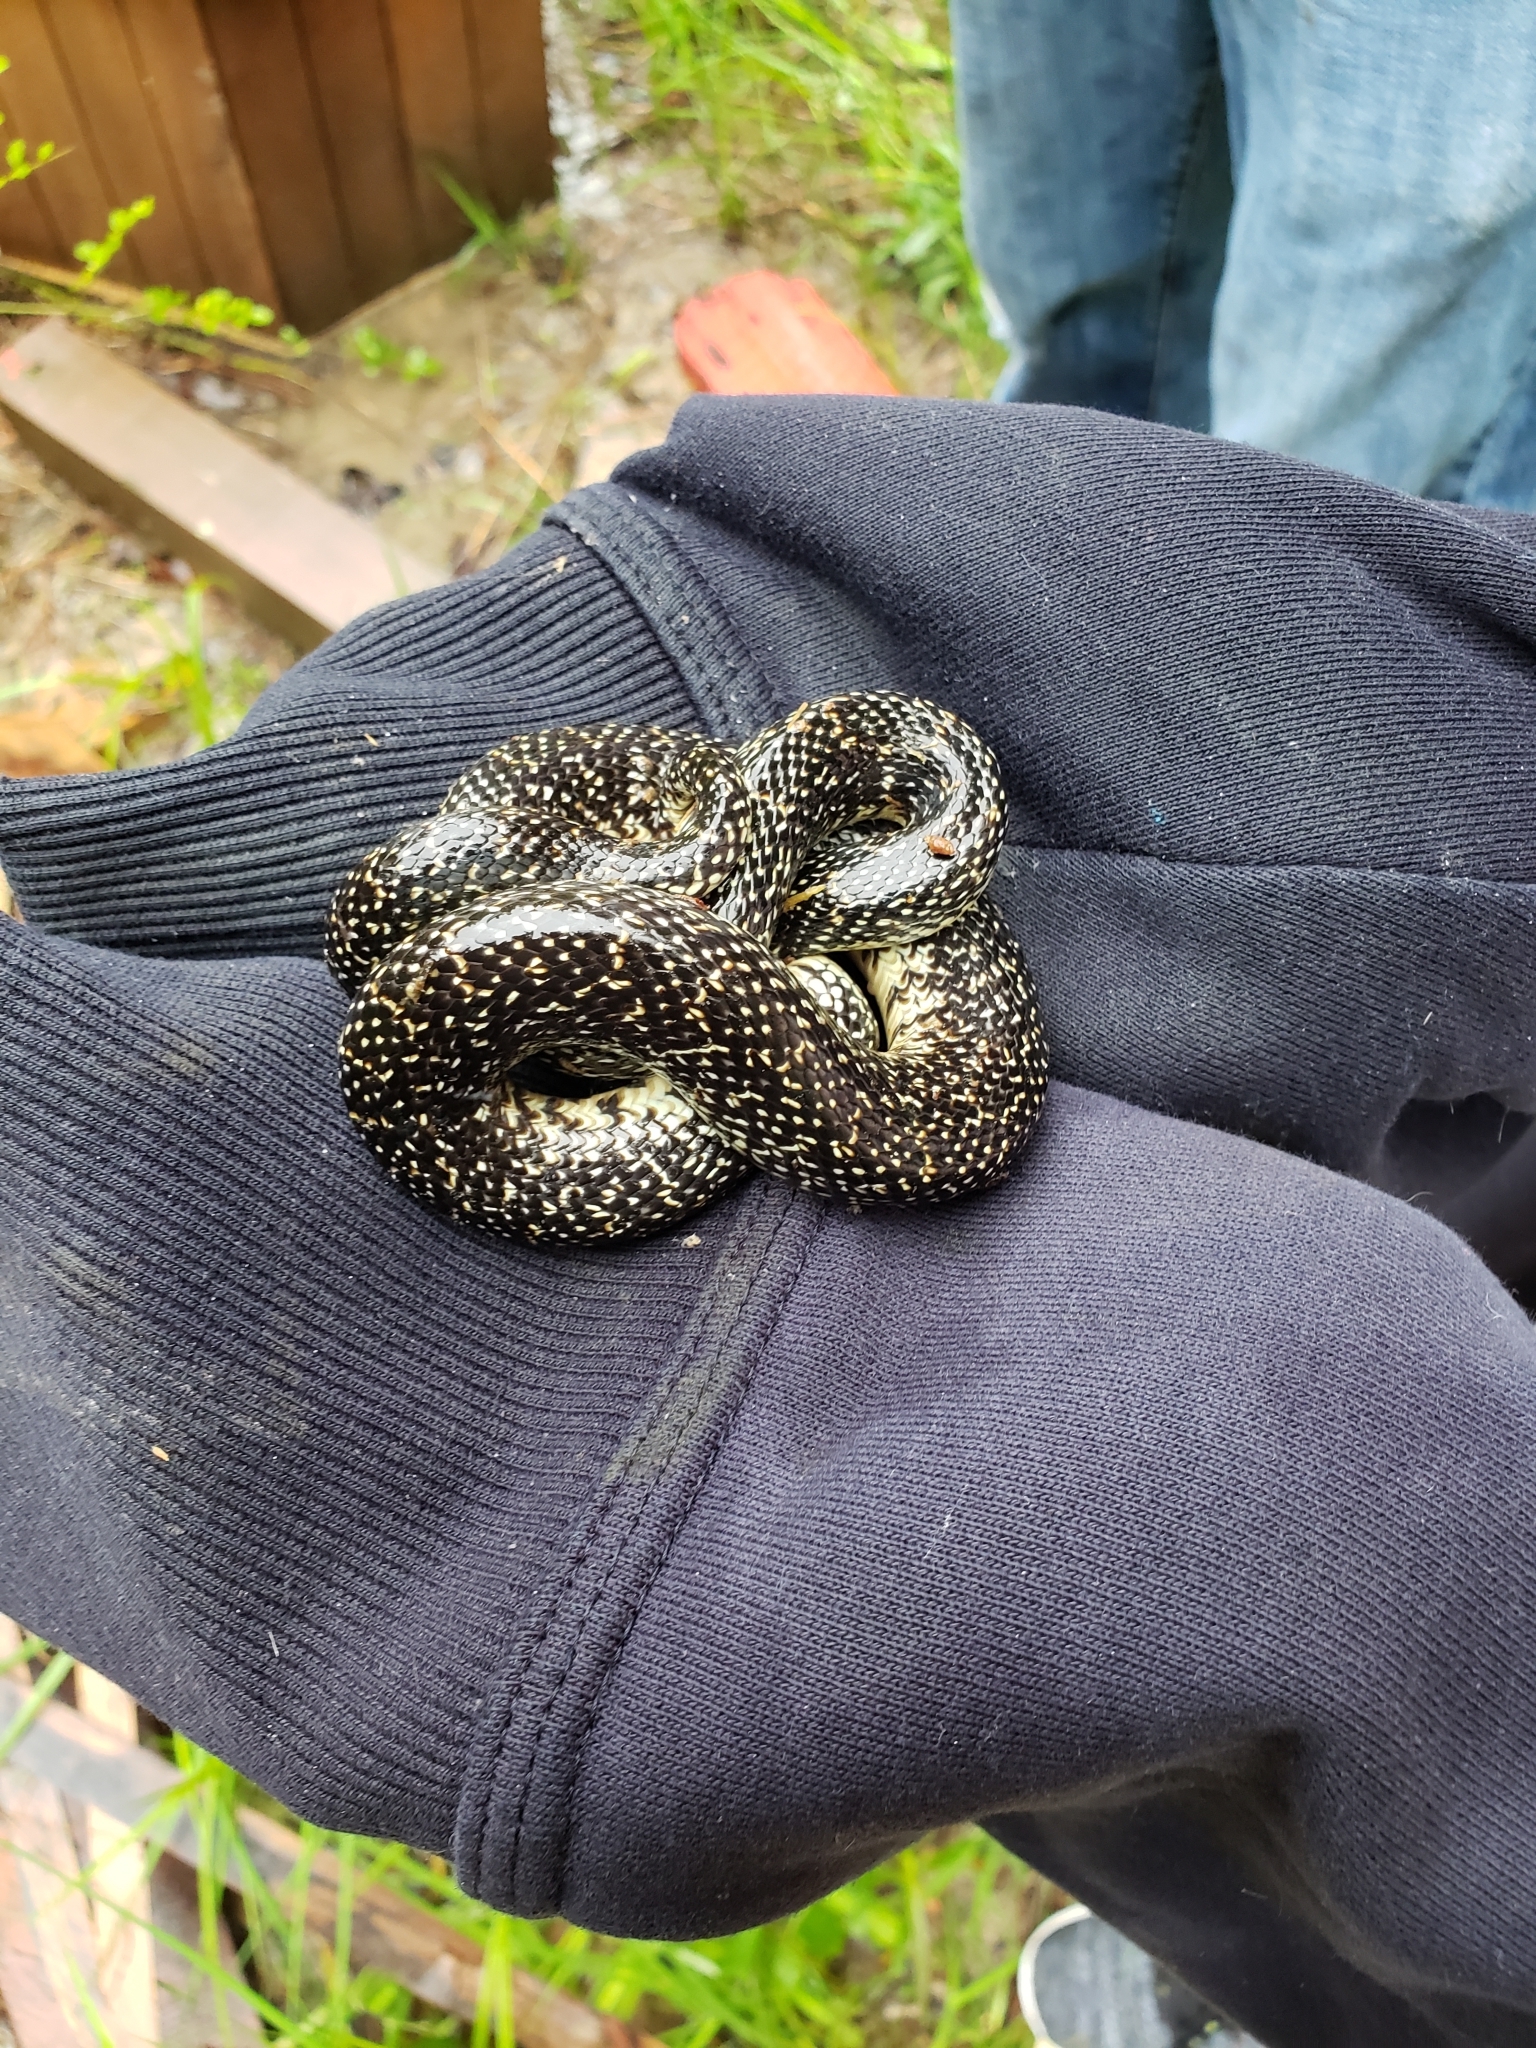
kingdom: Animalia
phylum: Chordata
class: Squamata
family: Colubridae
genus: Lampropeltis
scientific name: Lampropeltis holbrooki
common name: Speckled kingsnake
